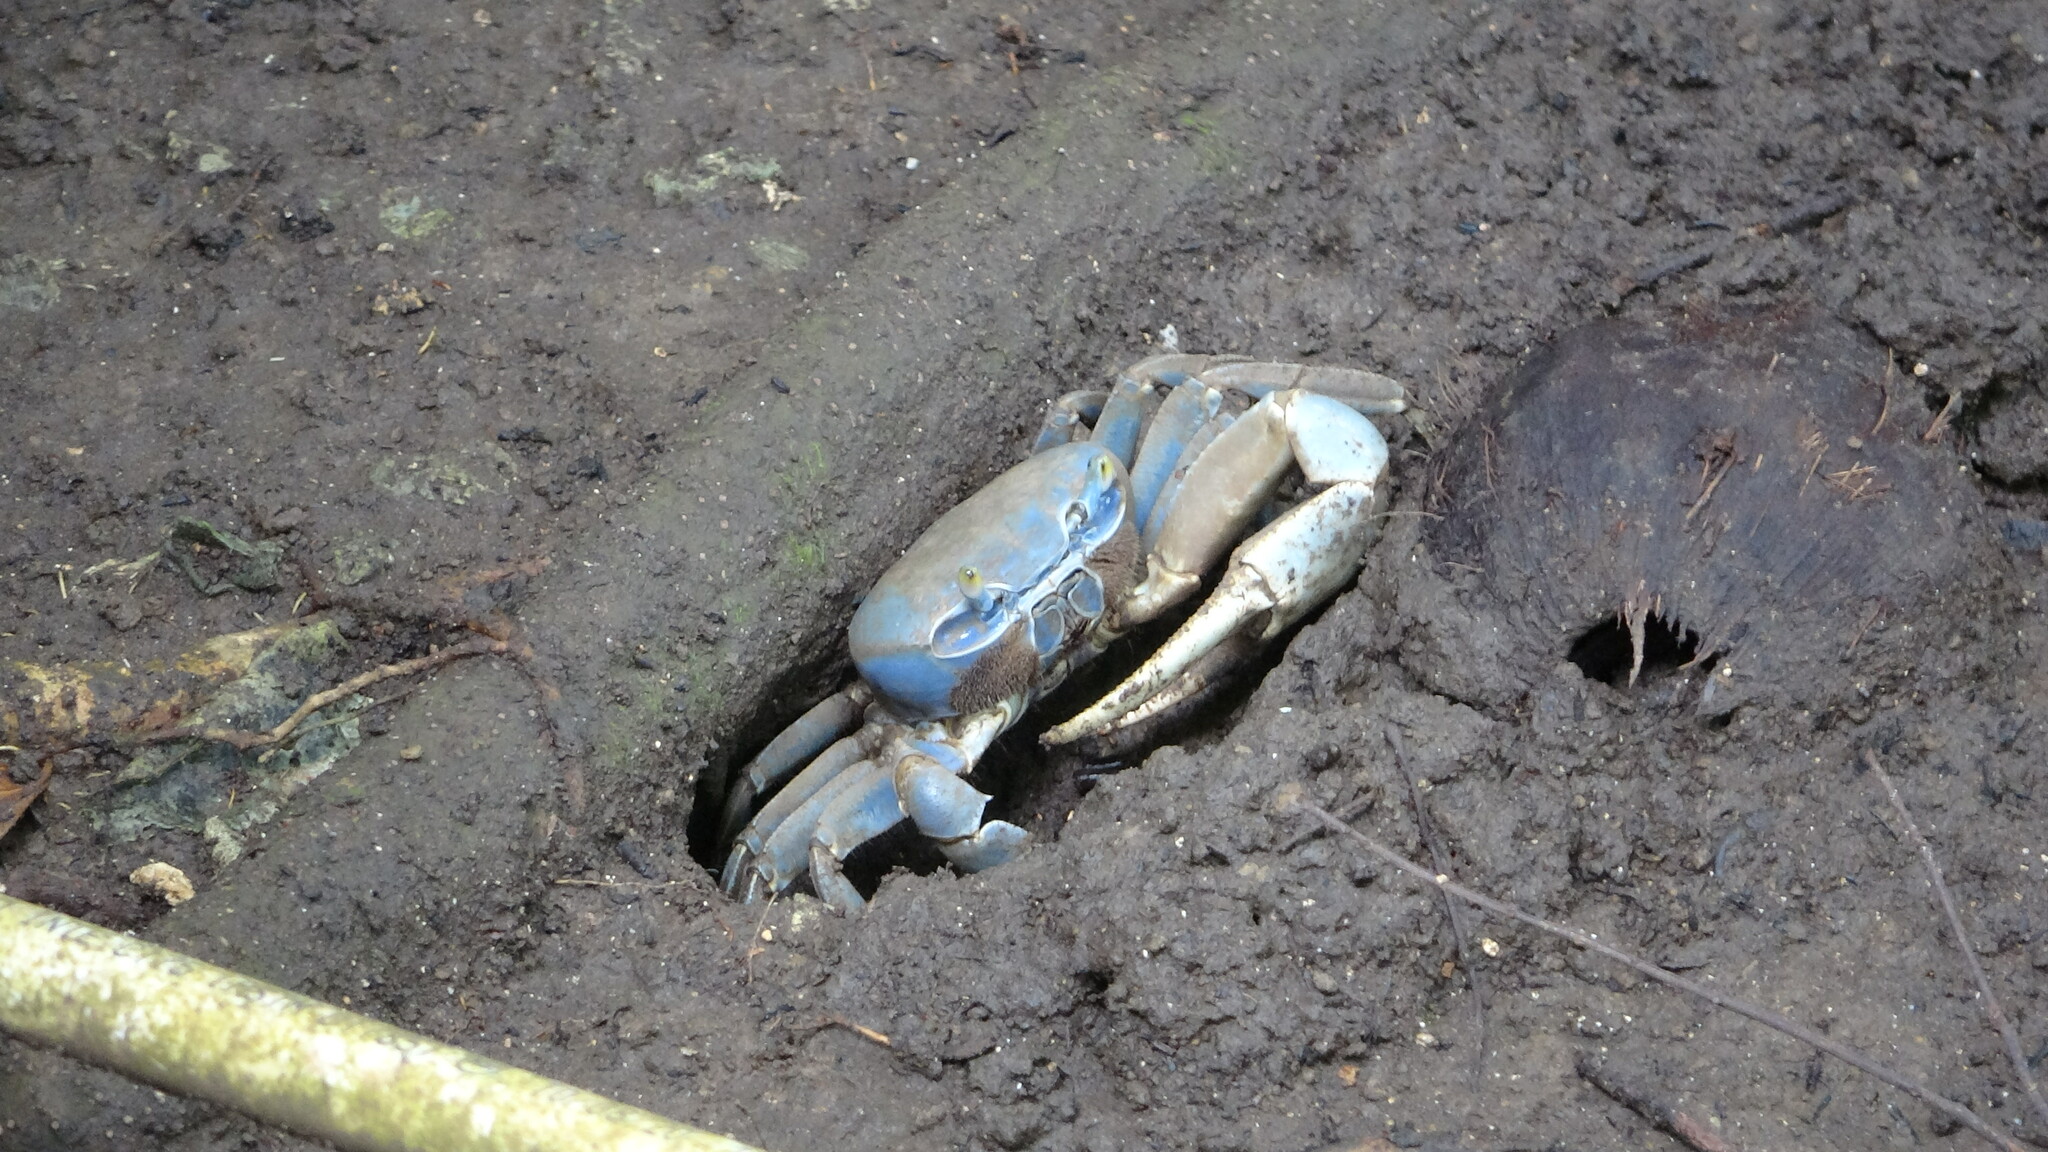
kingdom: Animalia
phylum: Arthropoda
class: Malacostraca
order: Decapoda
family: Gecarcinidae
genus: Cardisoma
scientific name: Cardisoma guanhumi
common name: Great land crab
